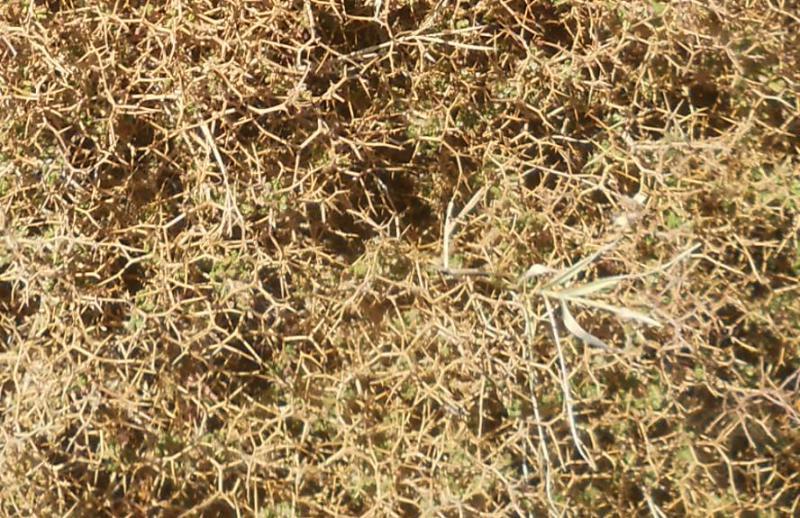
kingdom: Plantae
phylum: Tracheophyta
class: Magnoliopsida
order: Rosales
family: Rosaceae
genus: Sarcopoterium
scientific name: Sarcopoterium spinosum
